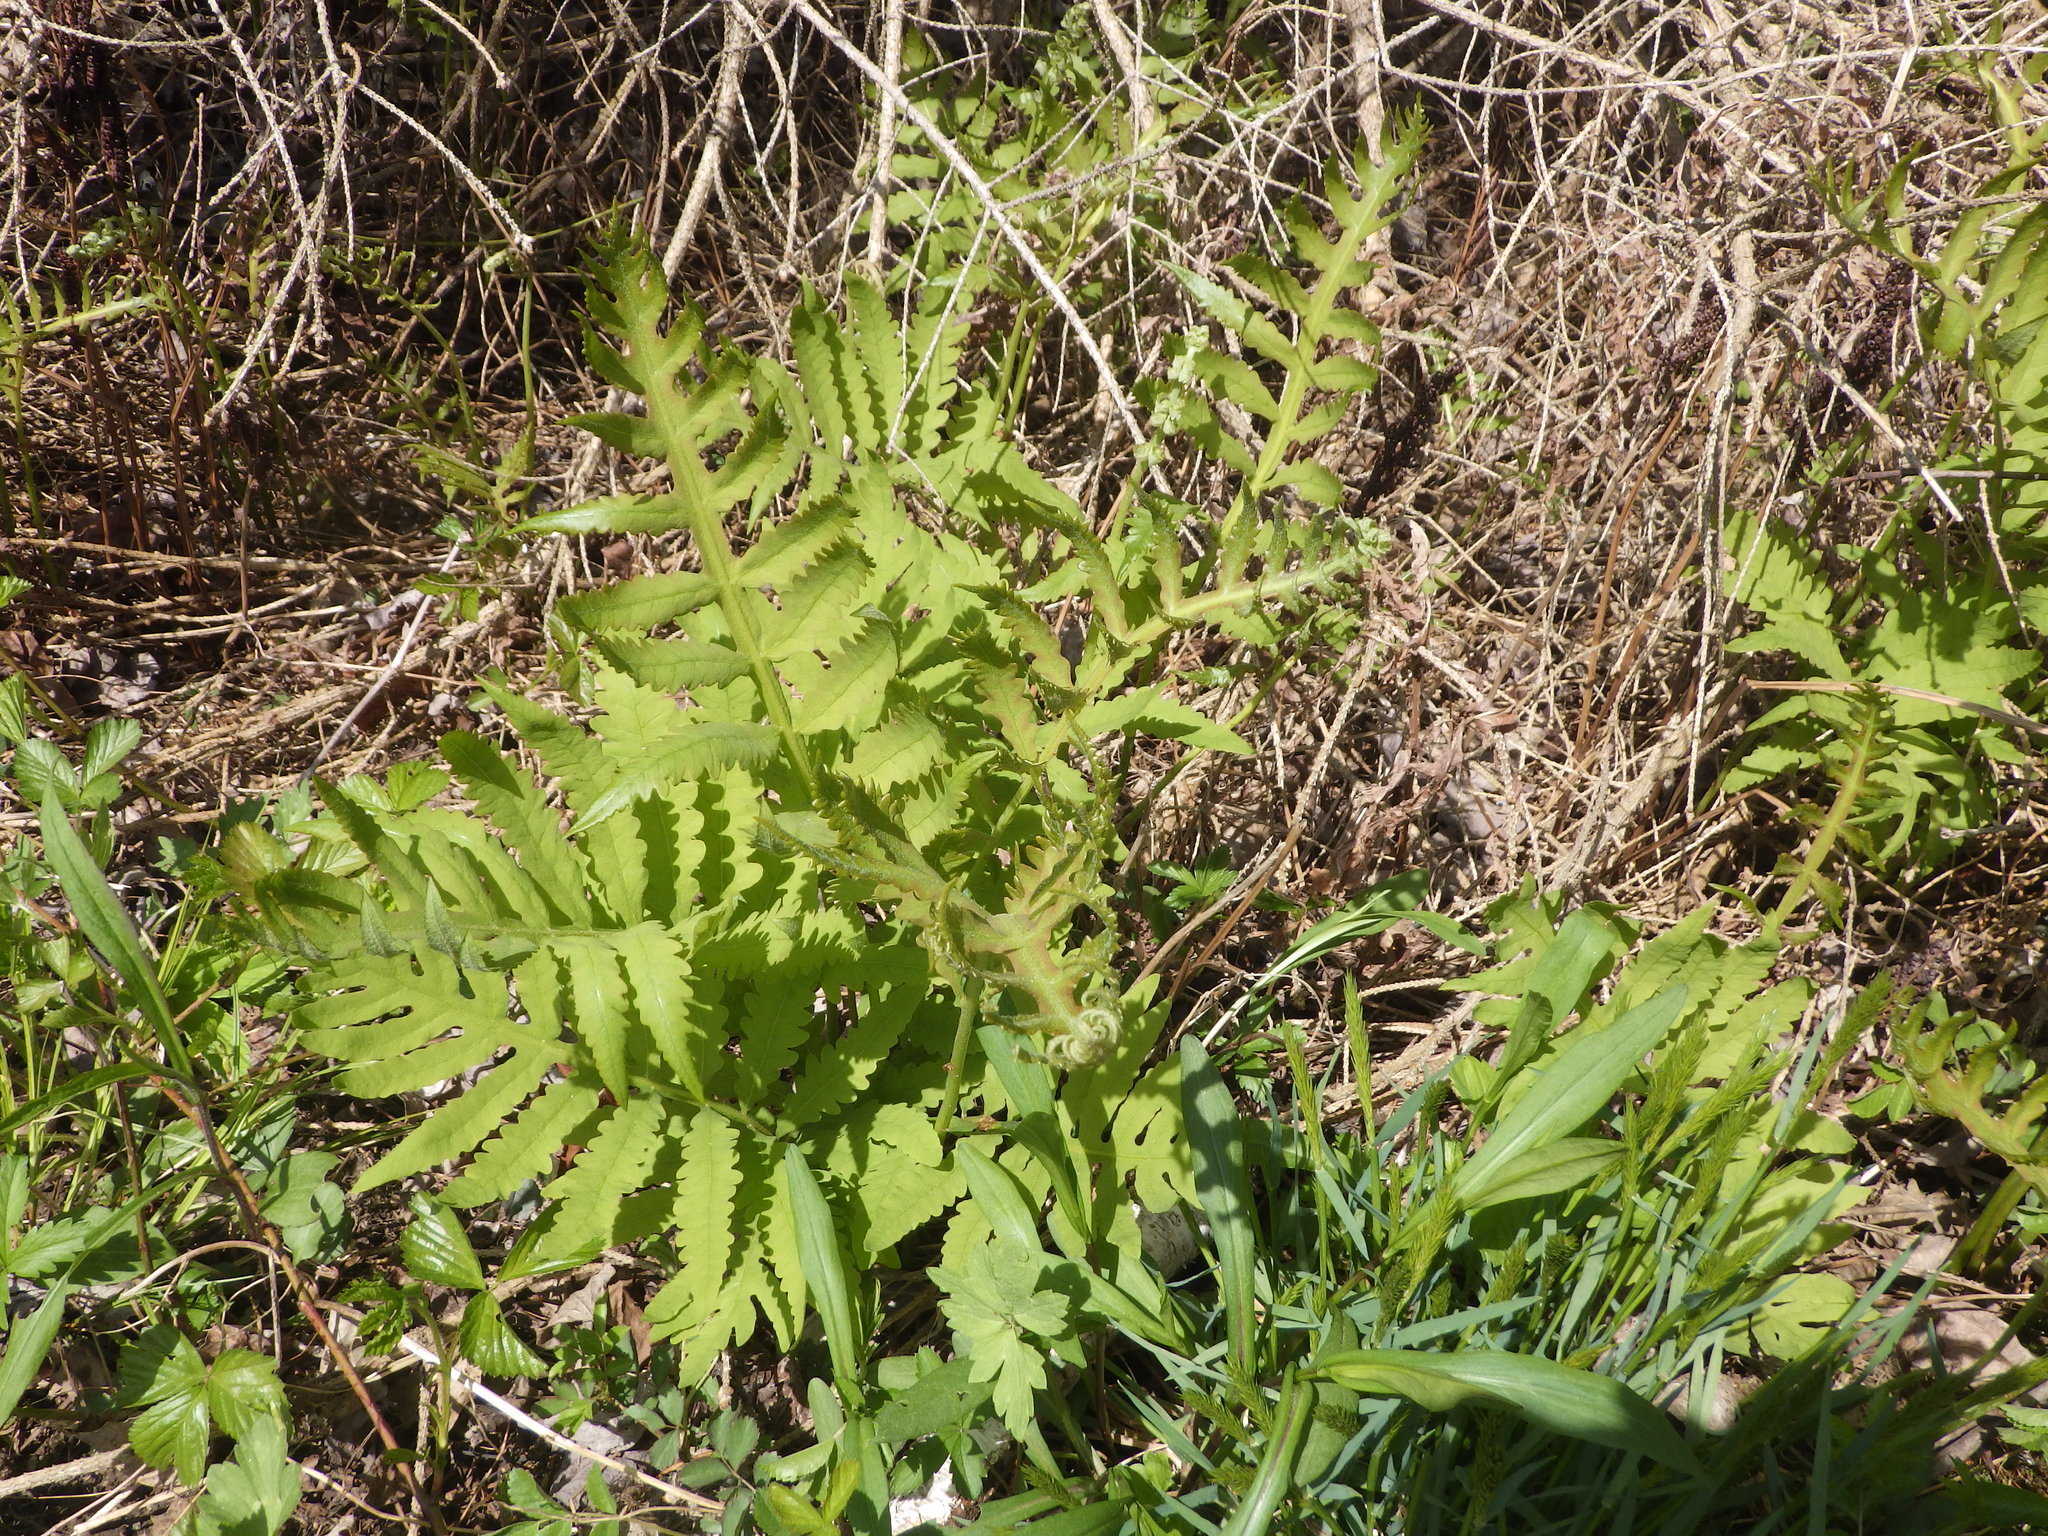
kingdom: Plantae
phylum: Tracheophyta
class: Polypodiopsida
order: Polypodiales
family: Onocleaceae
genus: Onoclea
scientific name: Onoclea sensibilis
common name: Sensitive fern
